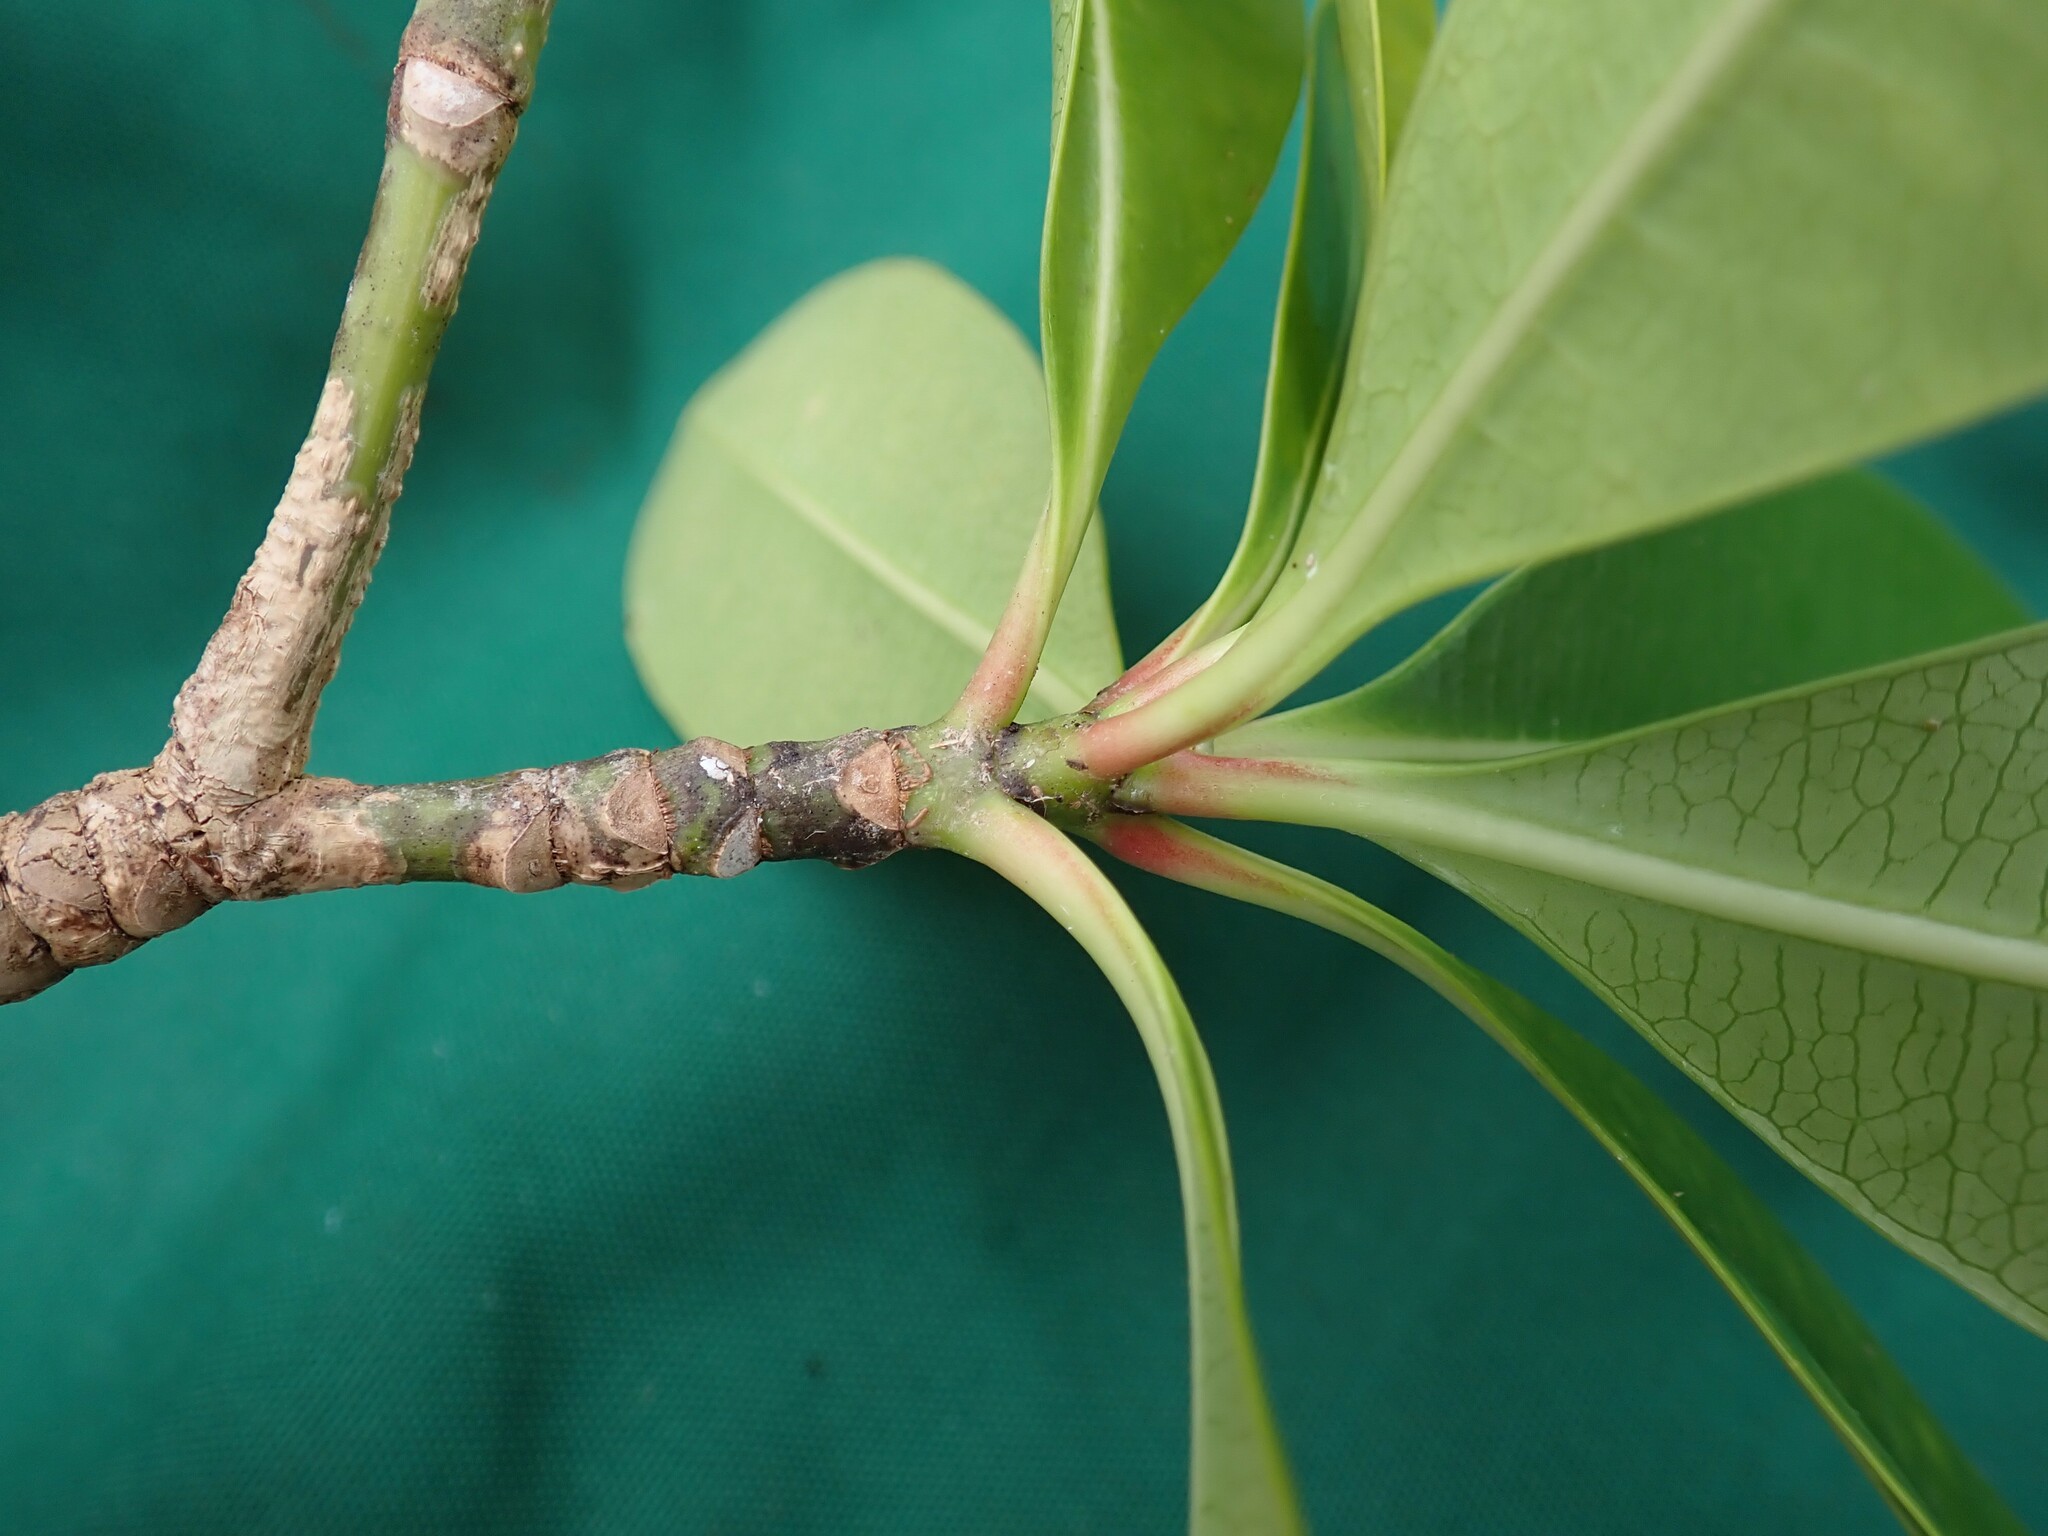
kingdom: Plantae
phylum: Tracheophyta
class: Magnoliopsida
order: Gentianales
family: Apocynaceae
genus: Ochrosia
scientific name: Ochrosia elliptica
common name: Elliptic yellowwood
